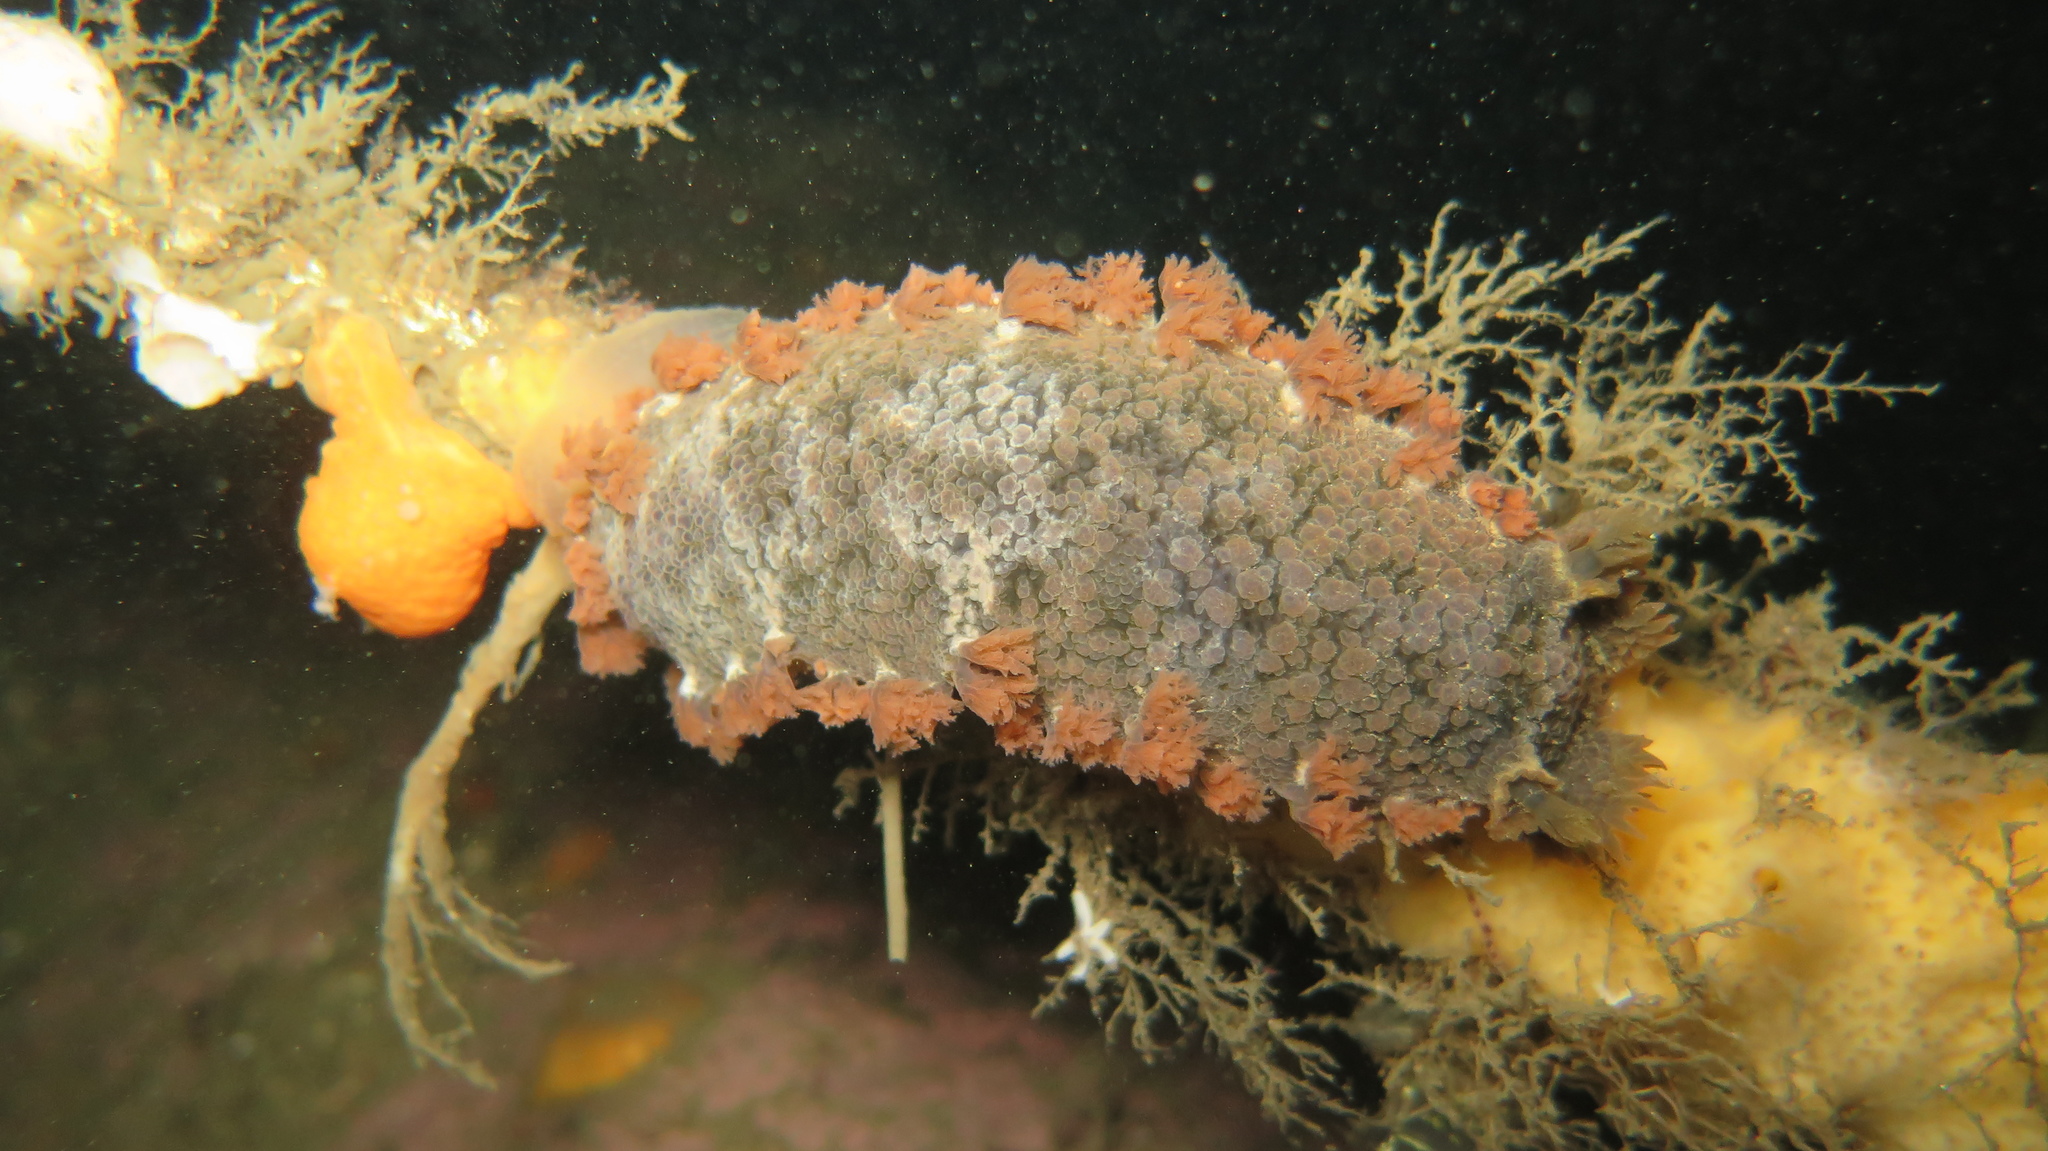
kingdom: Animalia
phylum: Mollusca
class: Gastropoda
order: Nudibranchia
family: Tritoniidae
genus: Tritonia
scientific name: Tritonia hombergii
